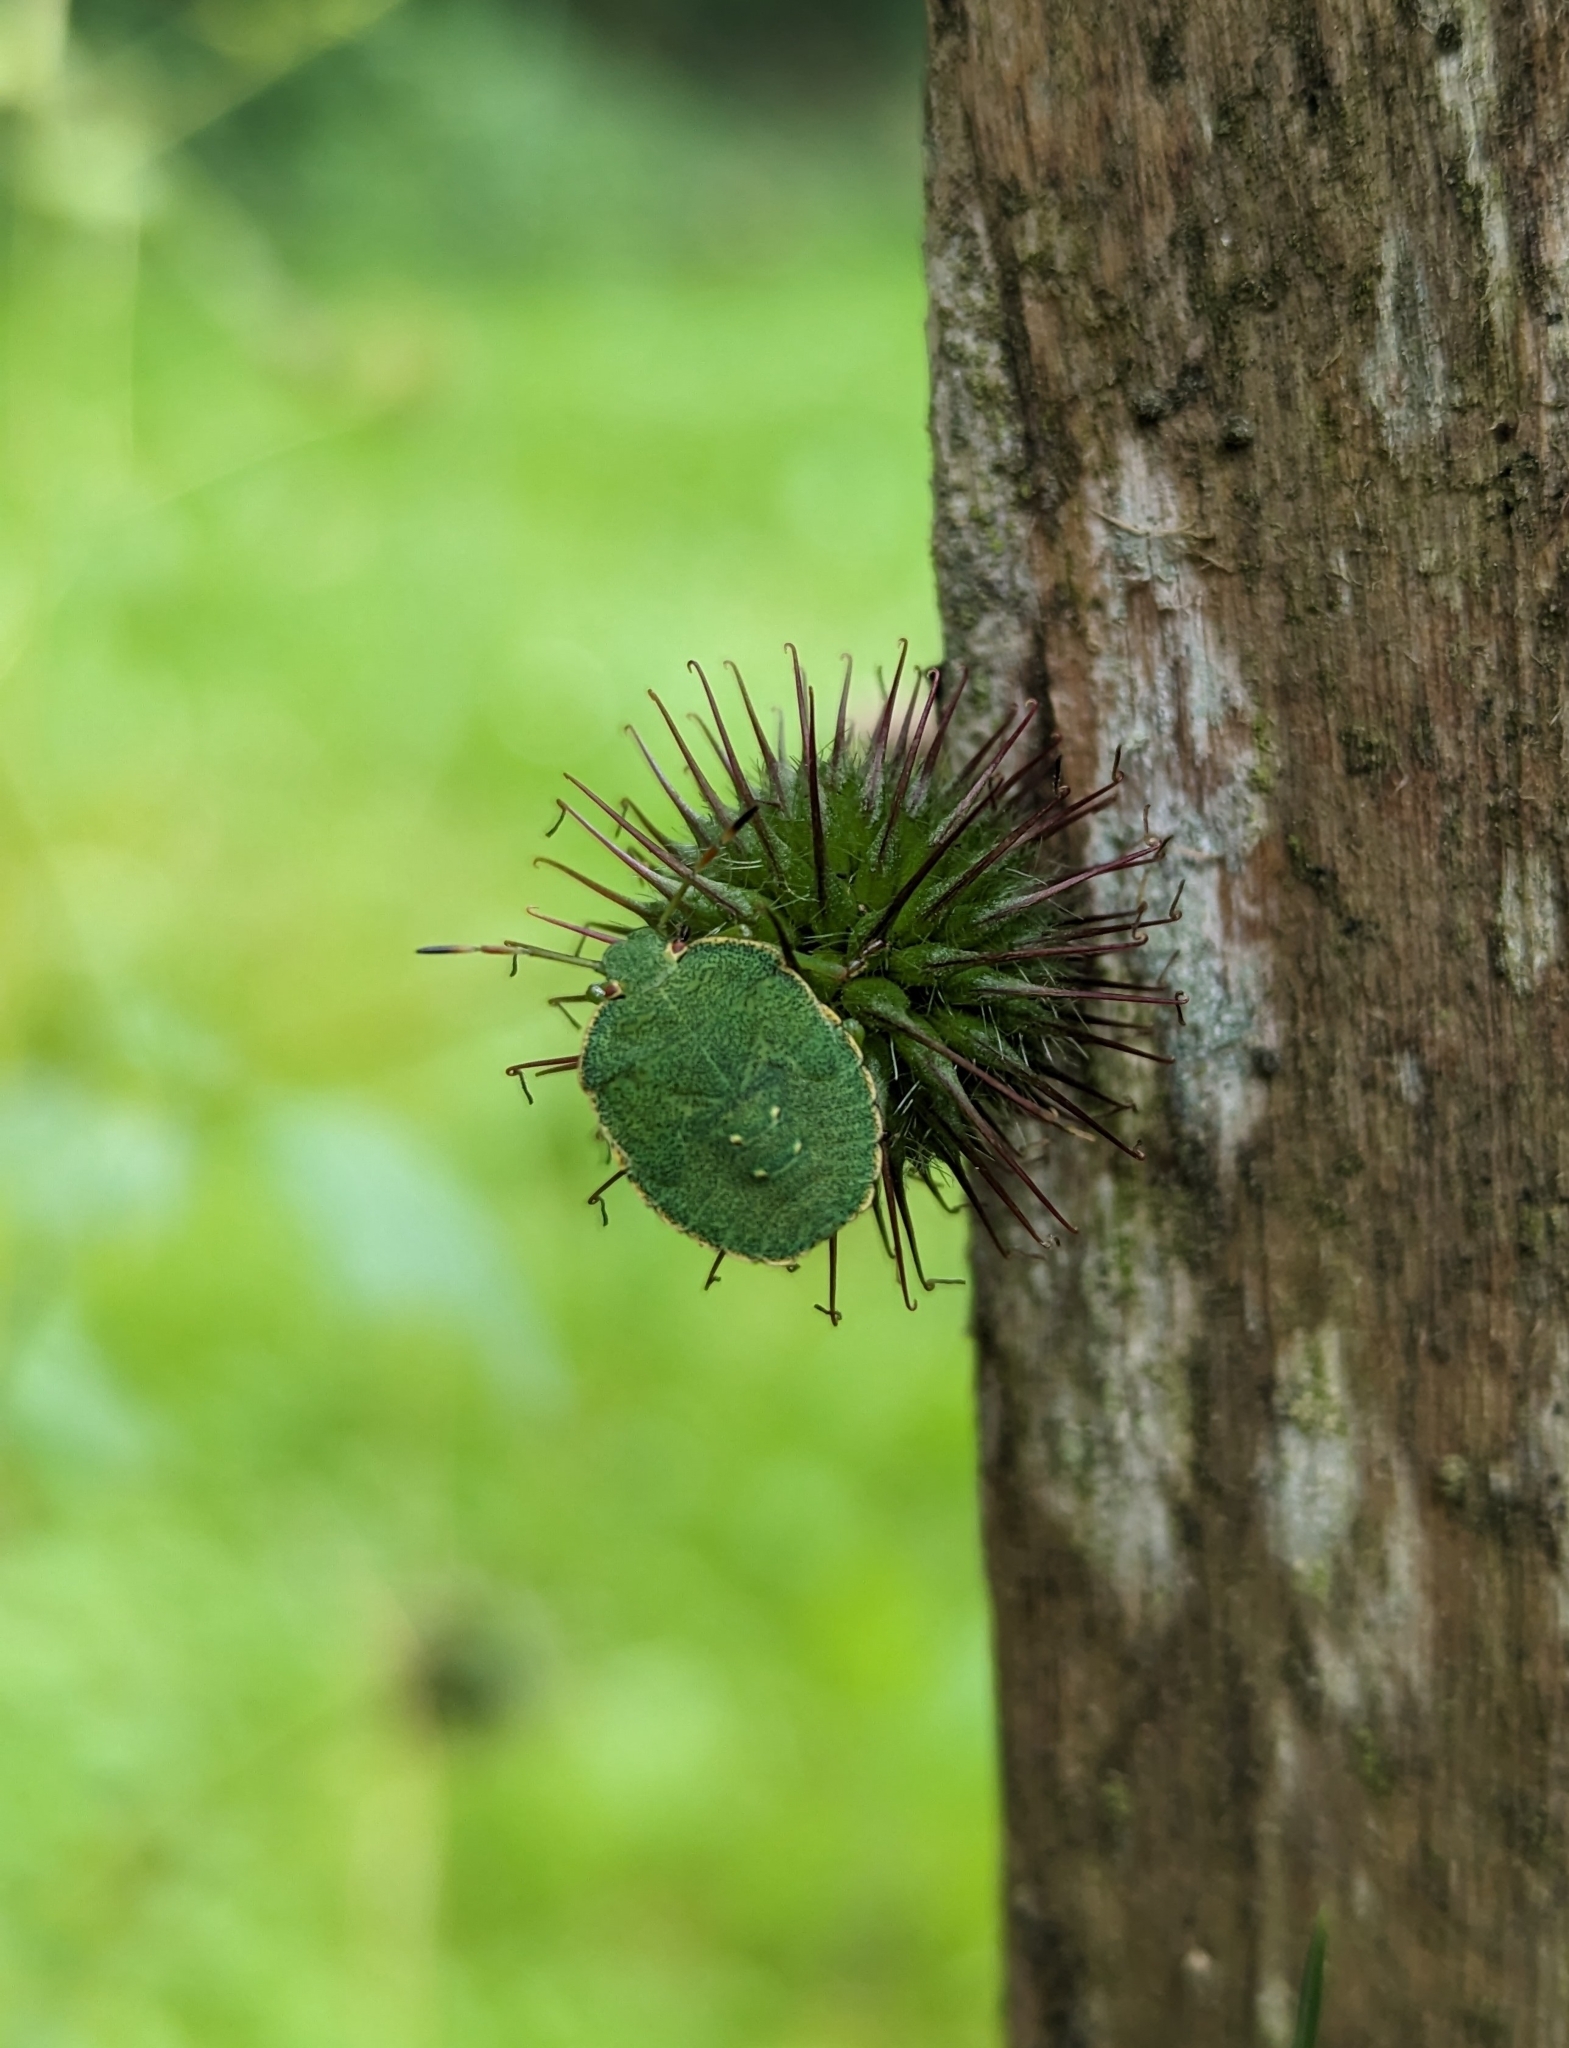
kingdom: Animalia
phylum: Arthropoda
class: Insecta
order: Hemiptera
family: Pentatomidae
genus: Palomena
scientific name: Palomena prasina
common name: Green shieldbug
